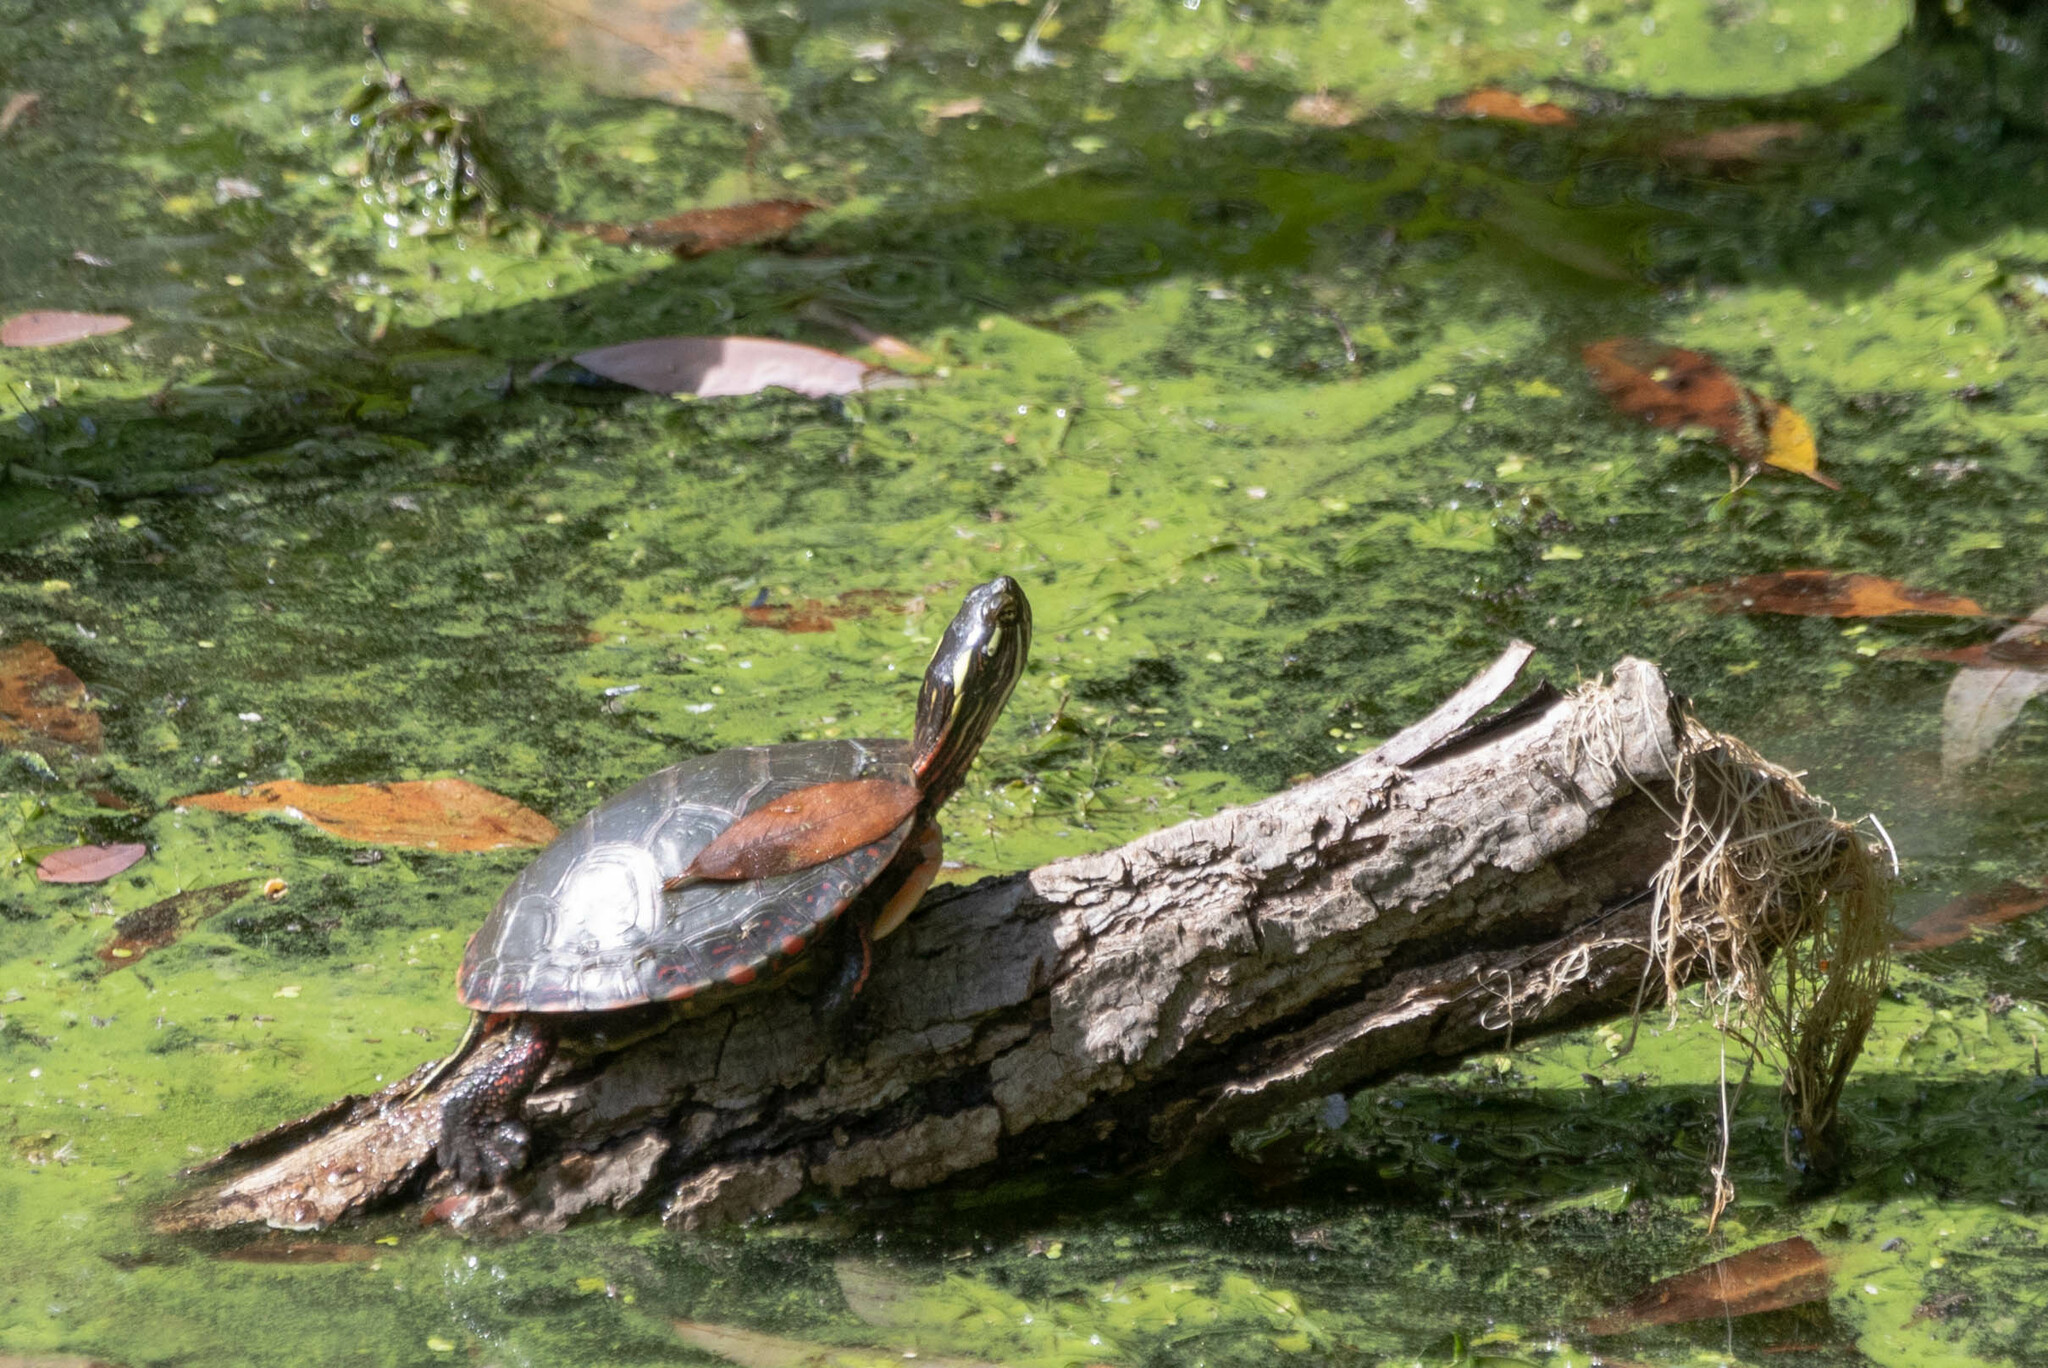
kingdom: Animalia
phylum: Chordata
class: Testudines
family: Emydidae
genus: Chrysemys
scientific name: Chrysemys picta
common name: Painted turtle
